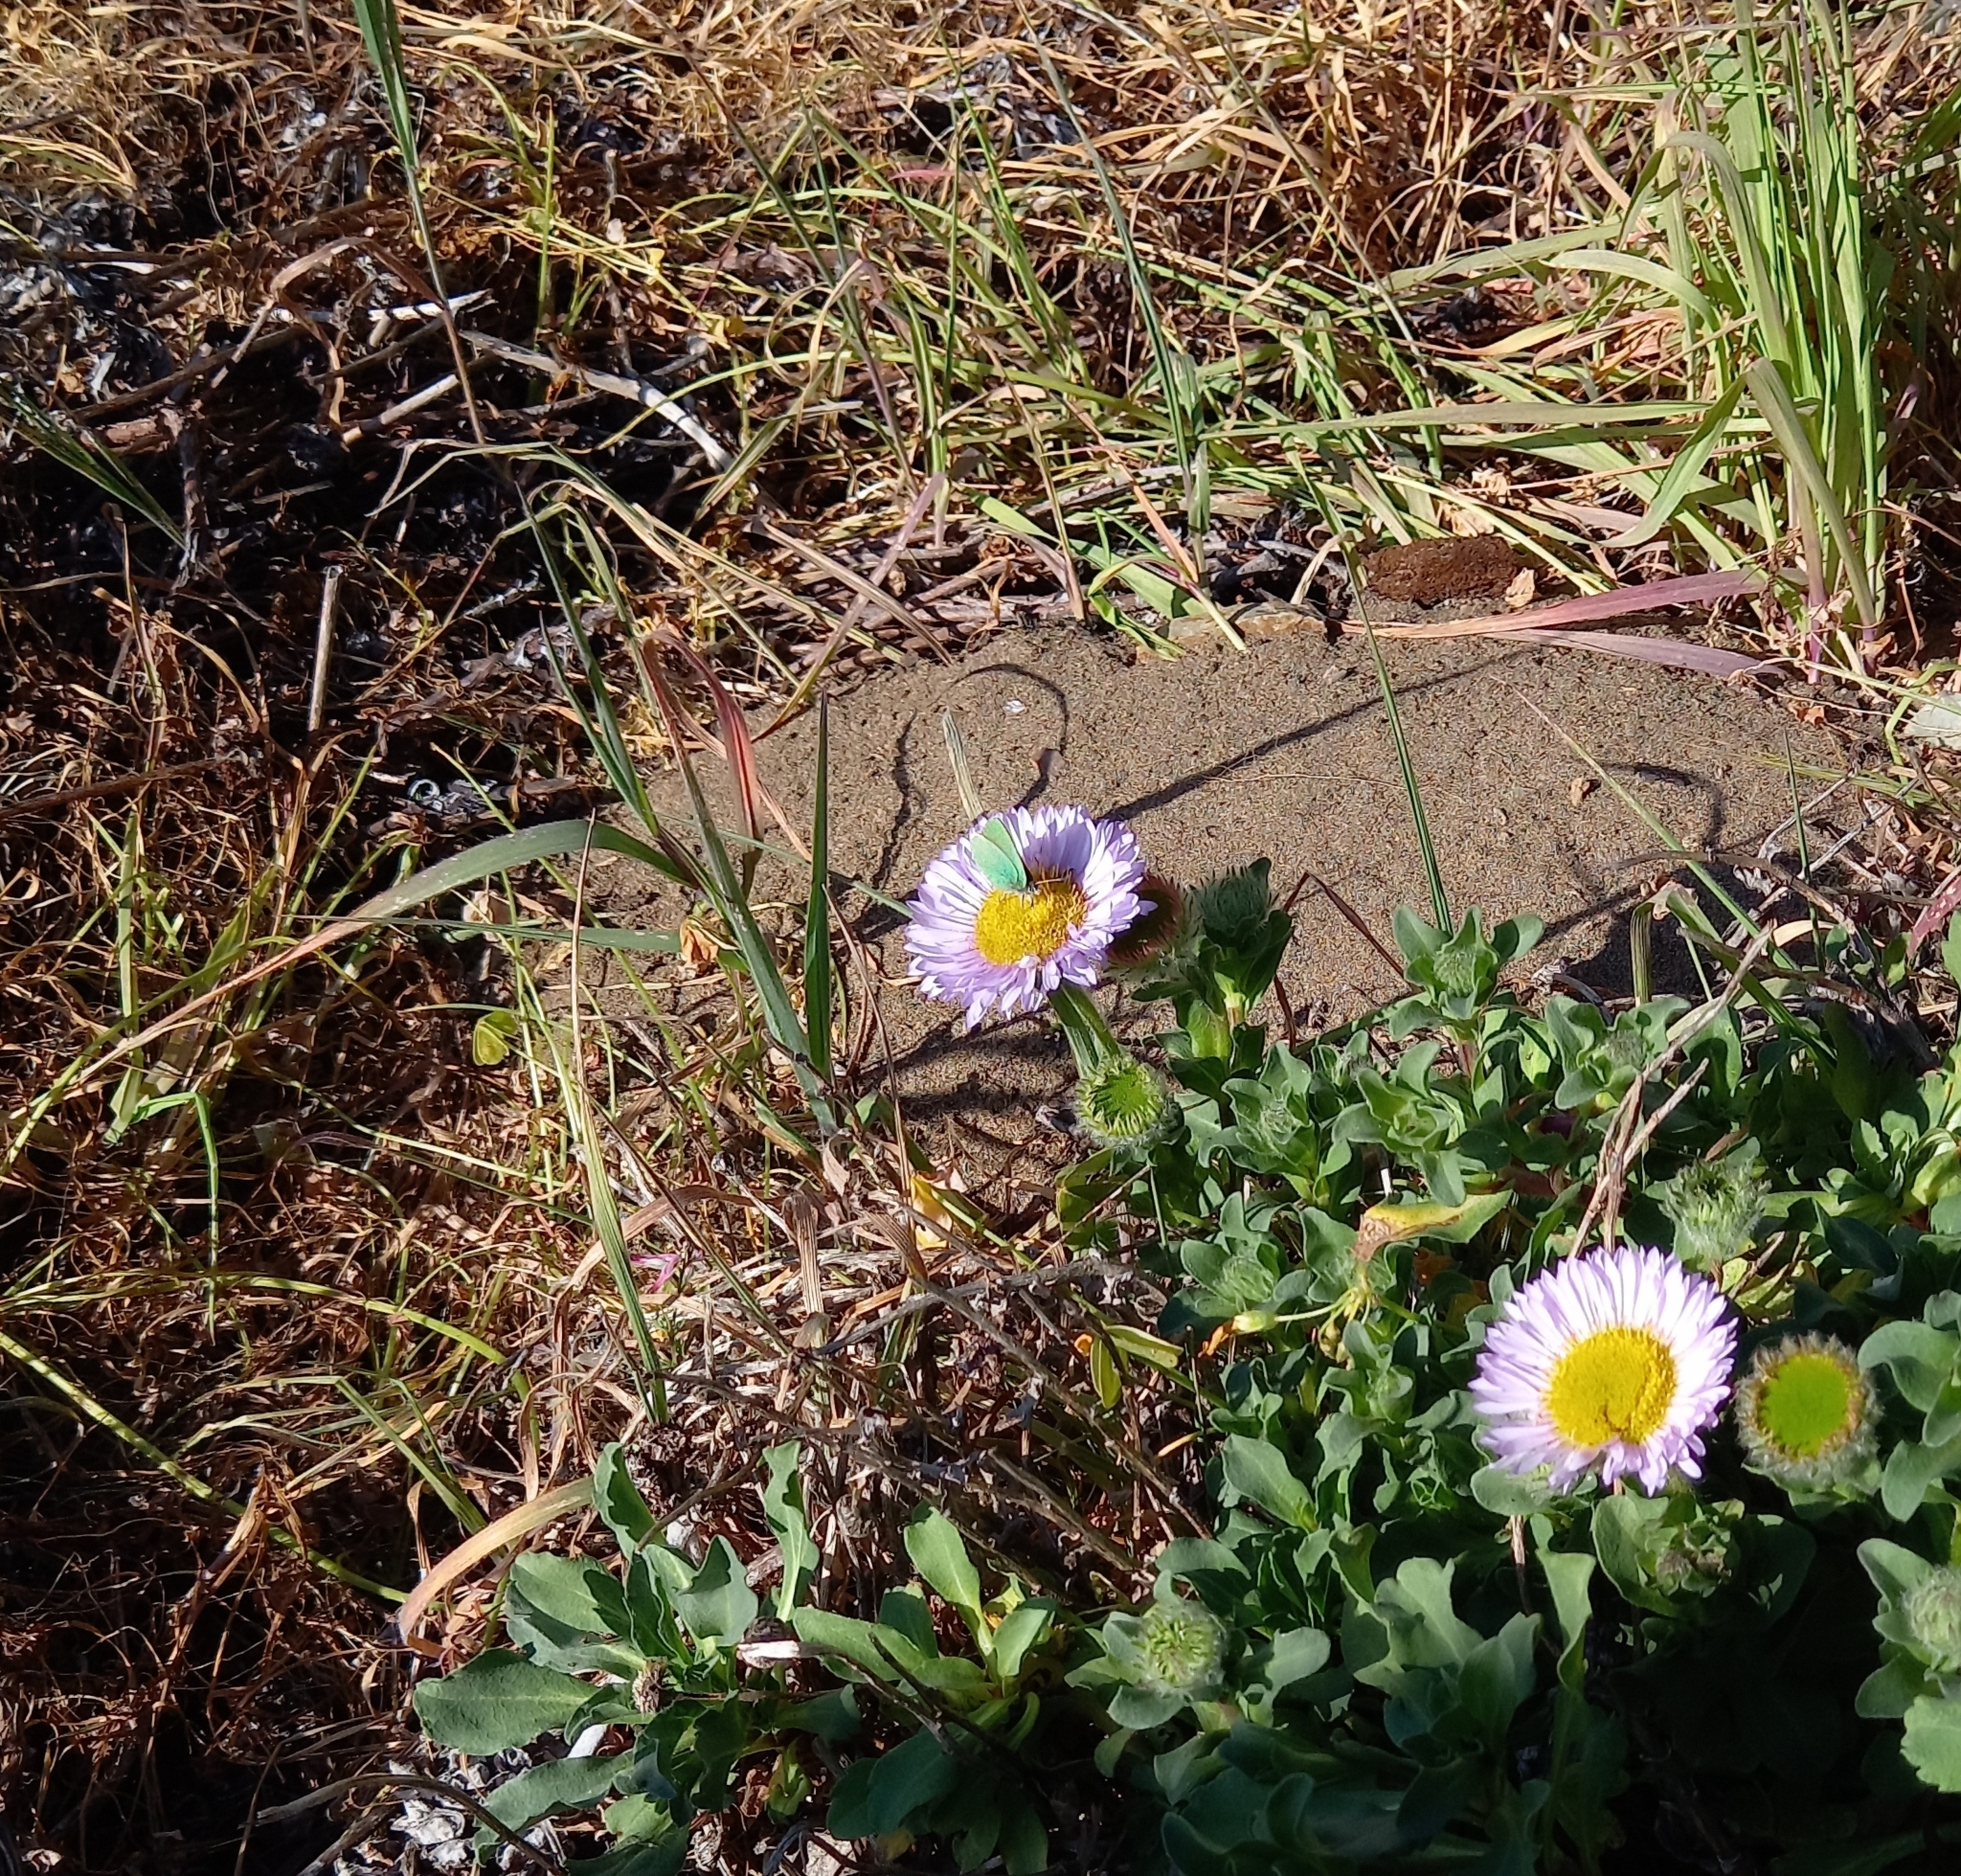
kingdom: Animalia
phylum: Arthropoda
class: Insecta
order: Lepidoptera
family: Lycaenidae
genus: Callophrys
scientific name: Callophrys viridis
